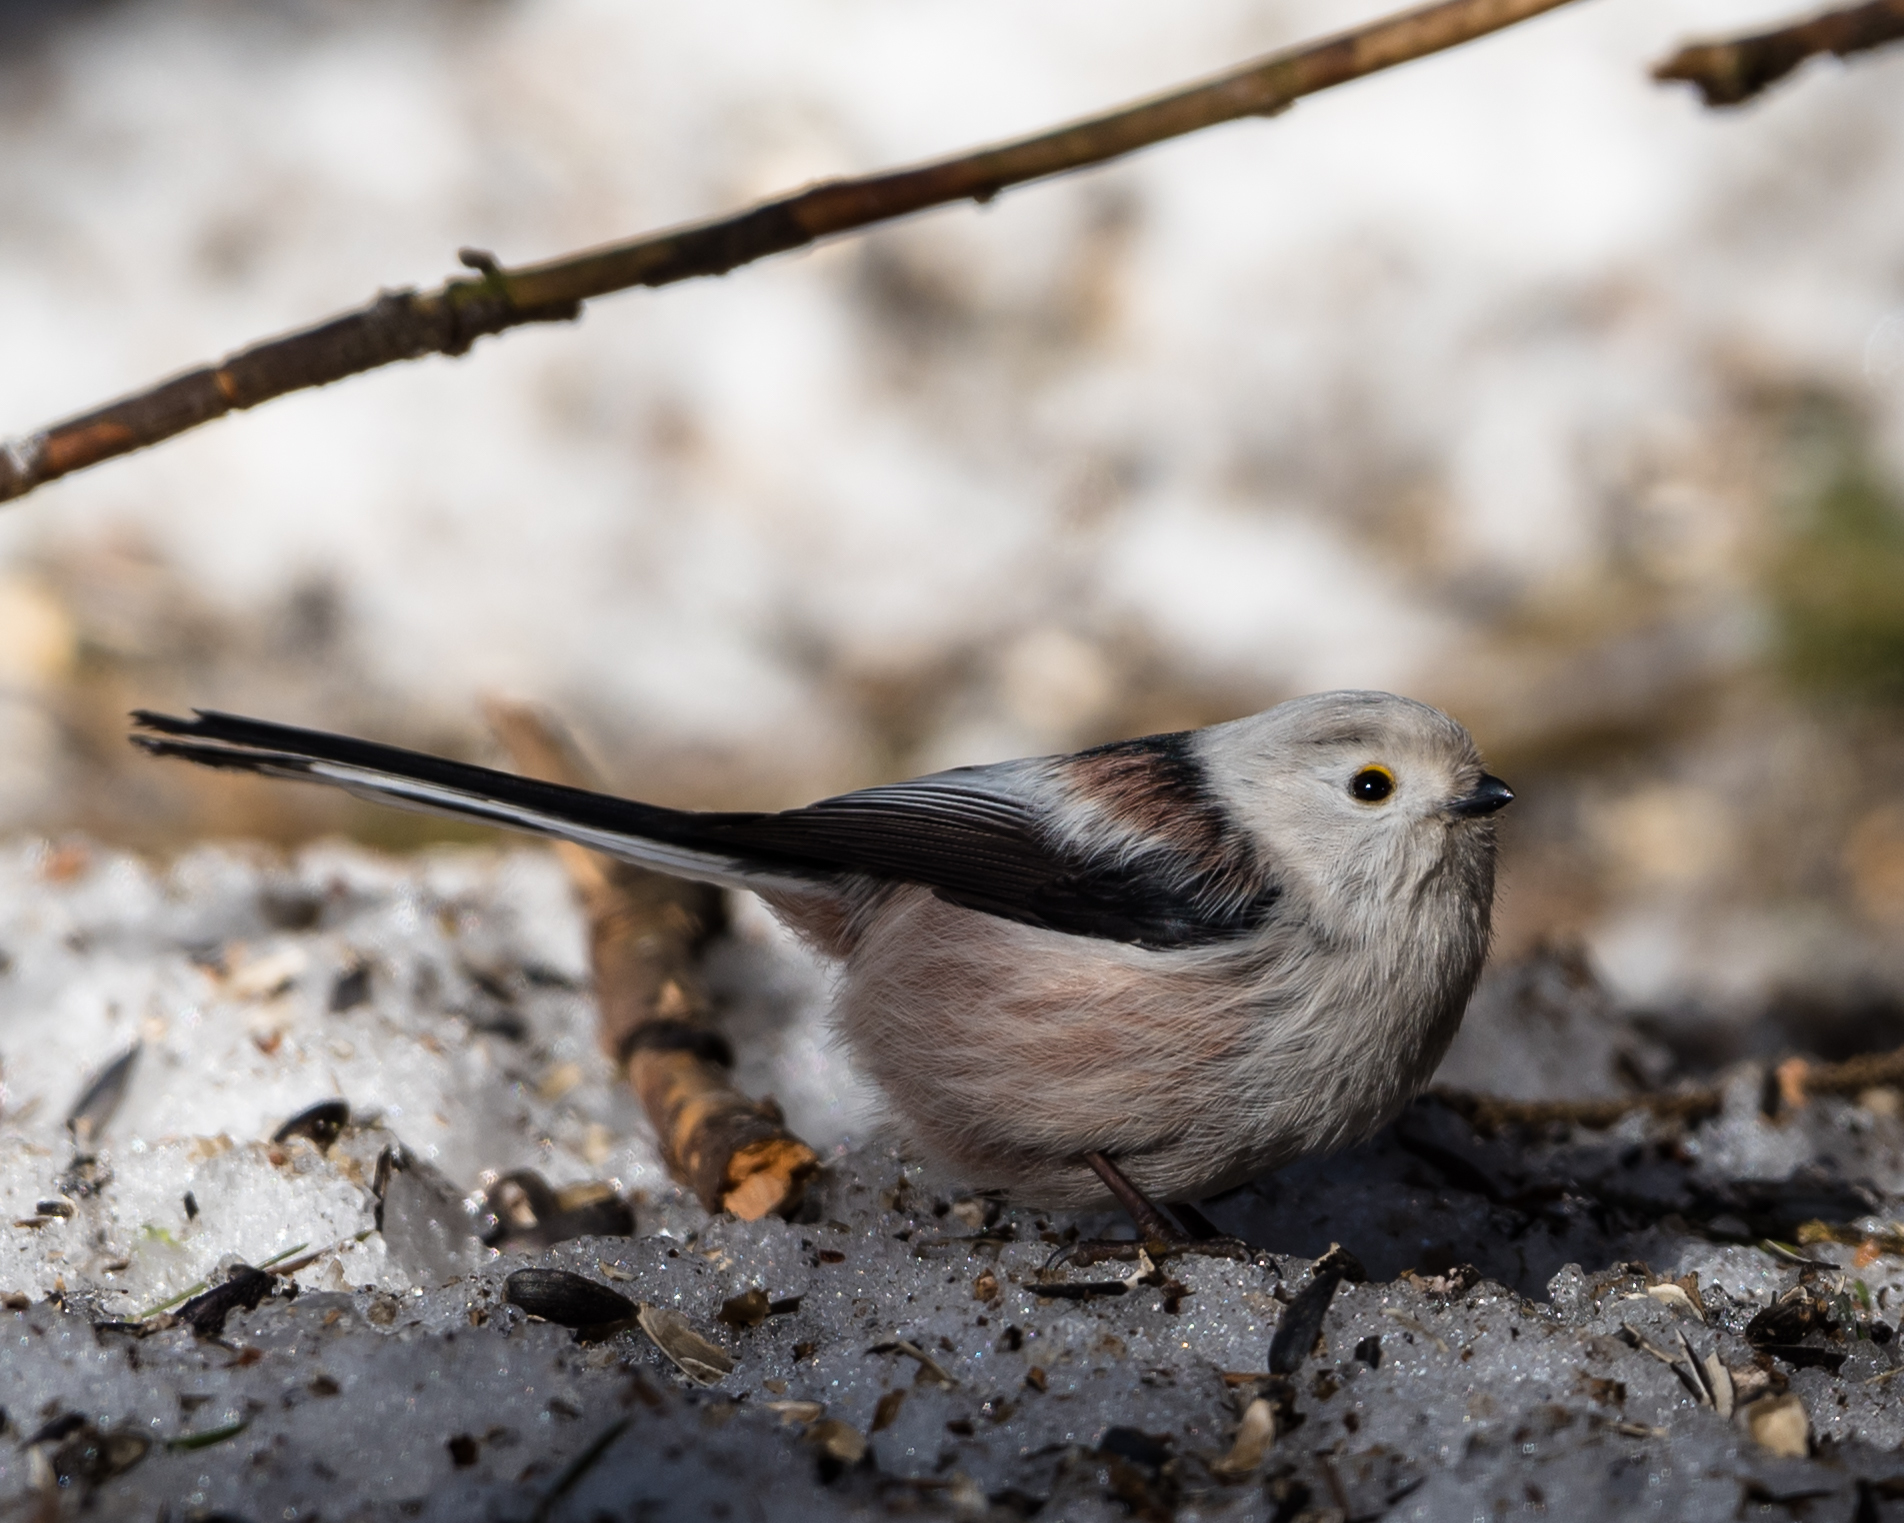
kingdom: Animalia
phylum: Chordata
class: Aves
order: Passeriformes
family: Aegithalidae
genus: Aegithalos
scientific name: Aegithalos caudatus
